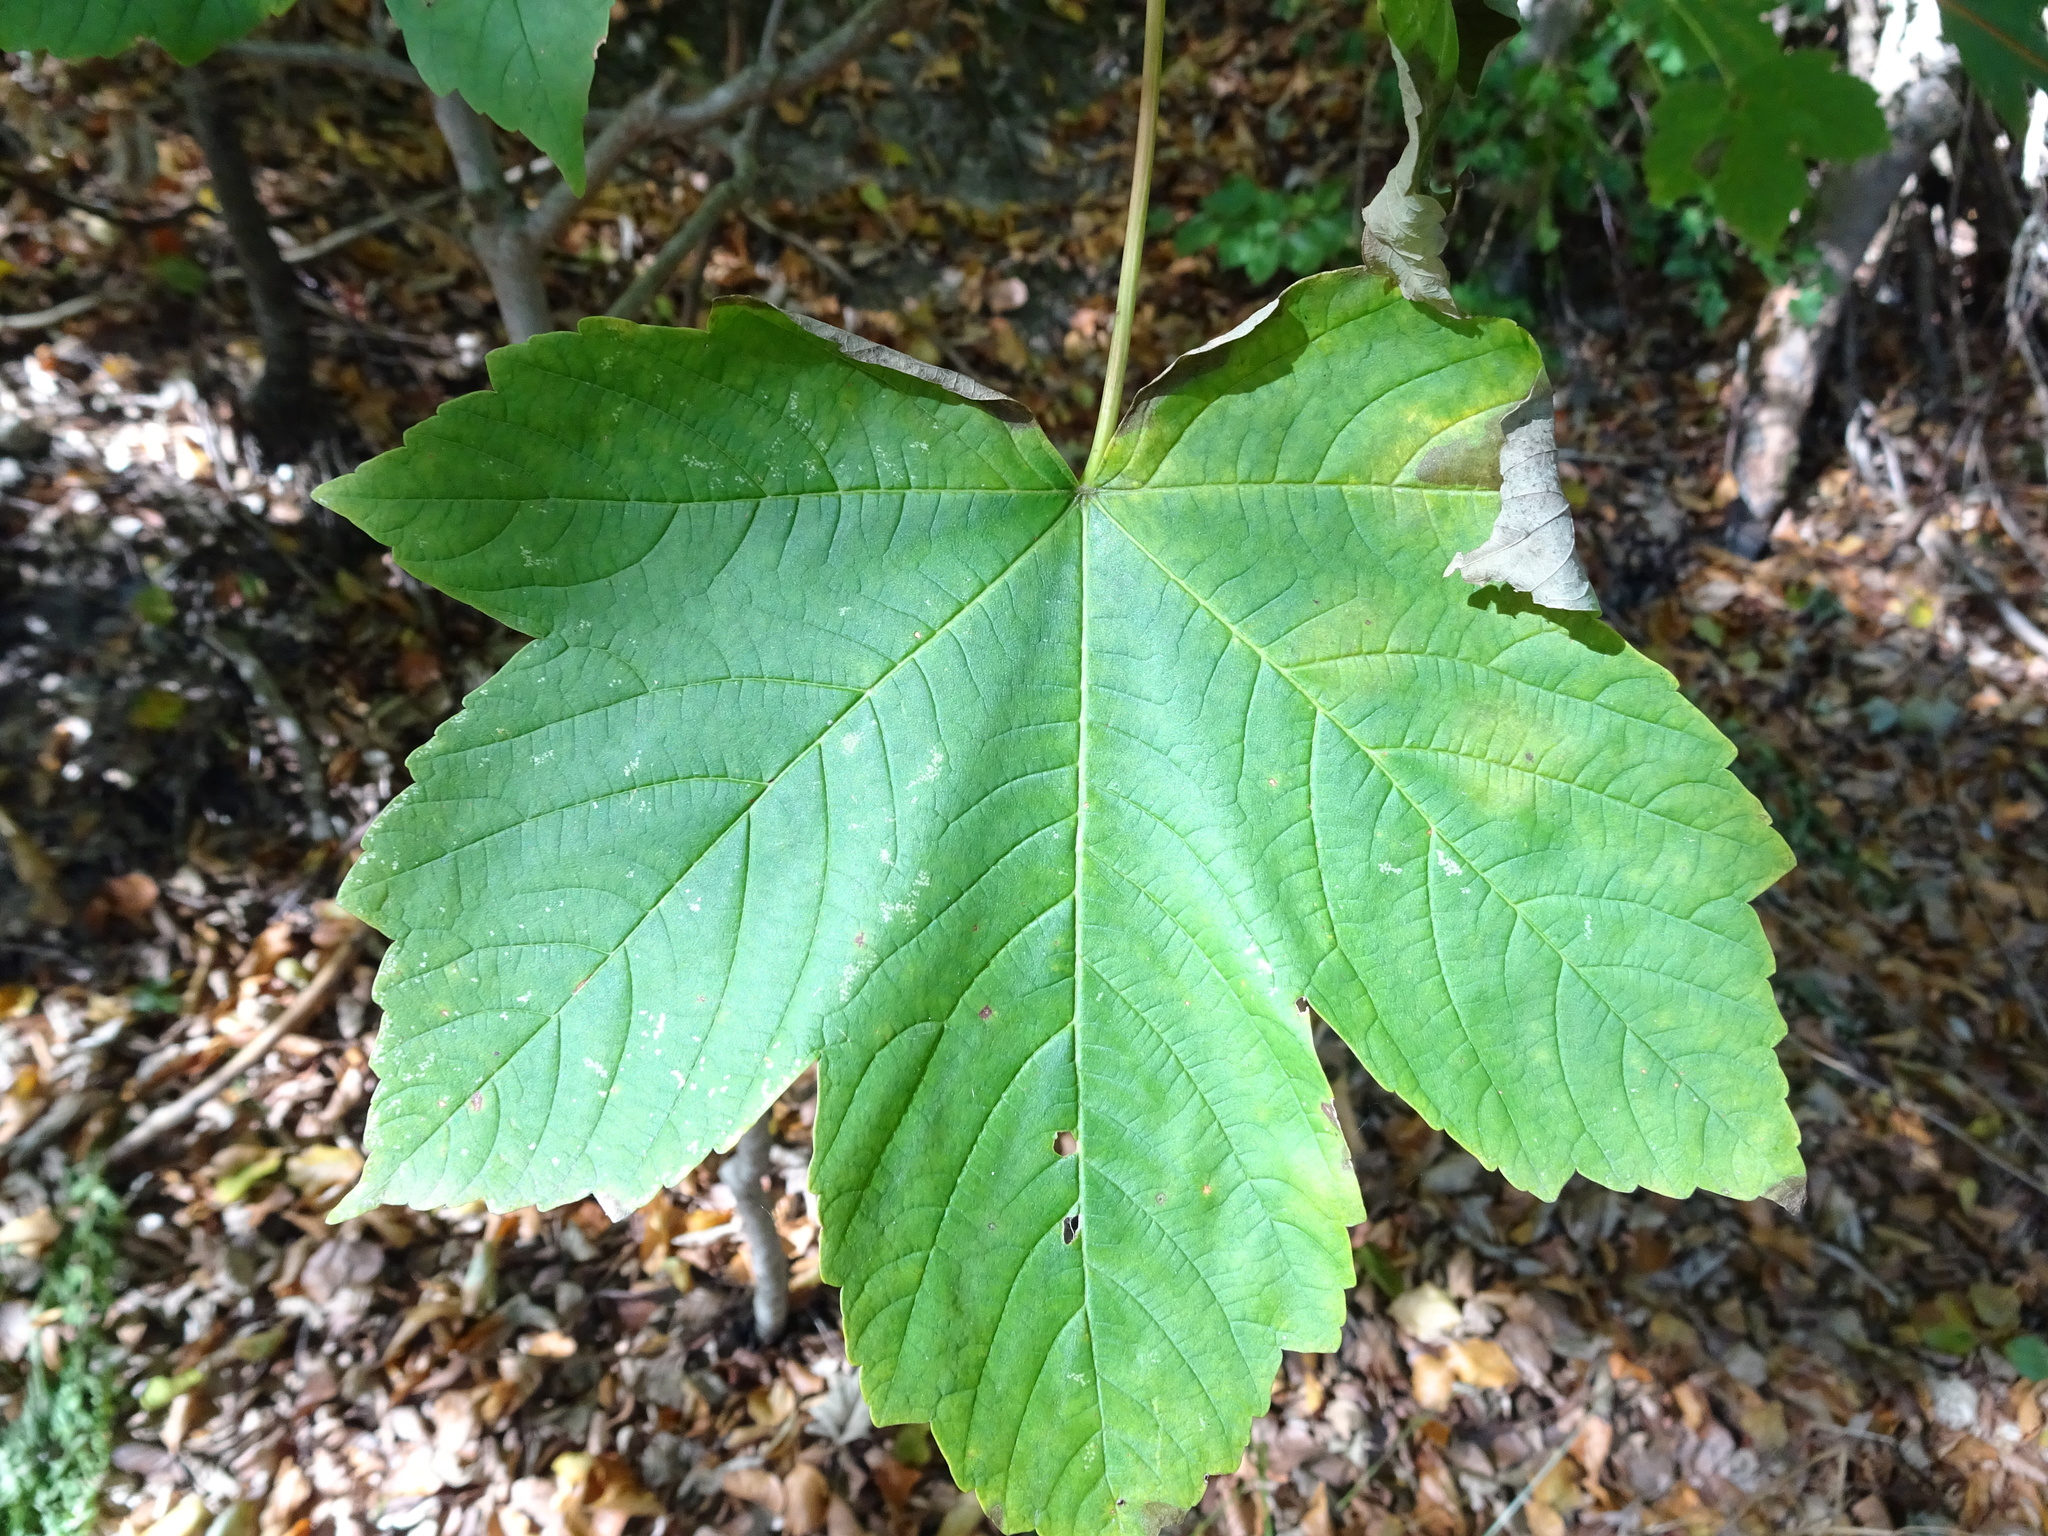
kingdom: Plantae
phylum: Tracheophyta
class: Magnoliopsida
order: Sapindales
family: Sapindaceae
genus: Acer
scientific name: Acer pseudoplatanus
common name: Sycamore
